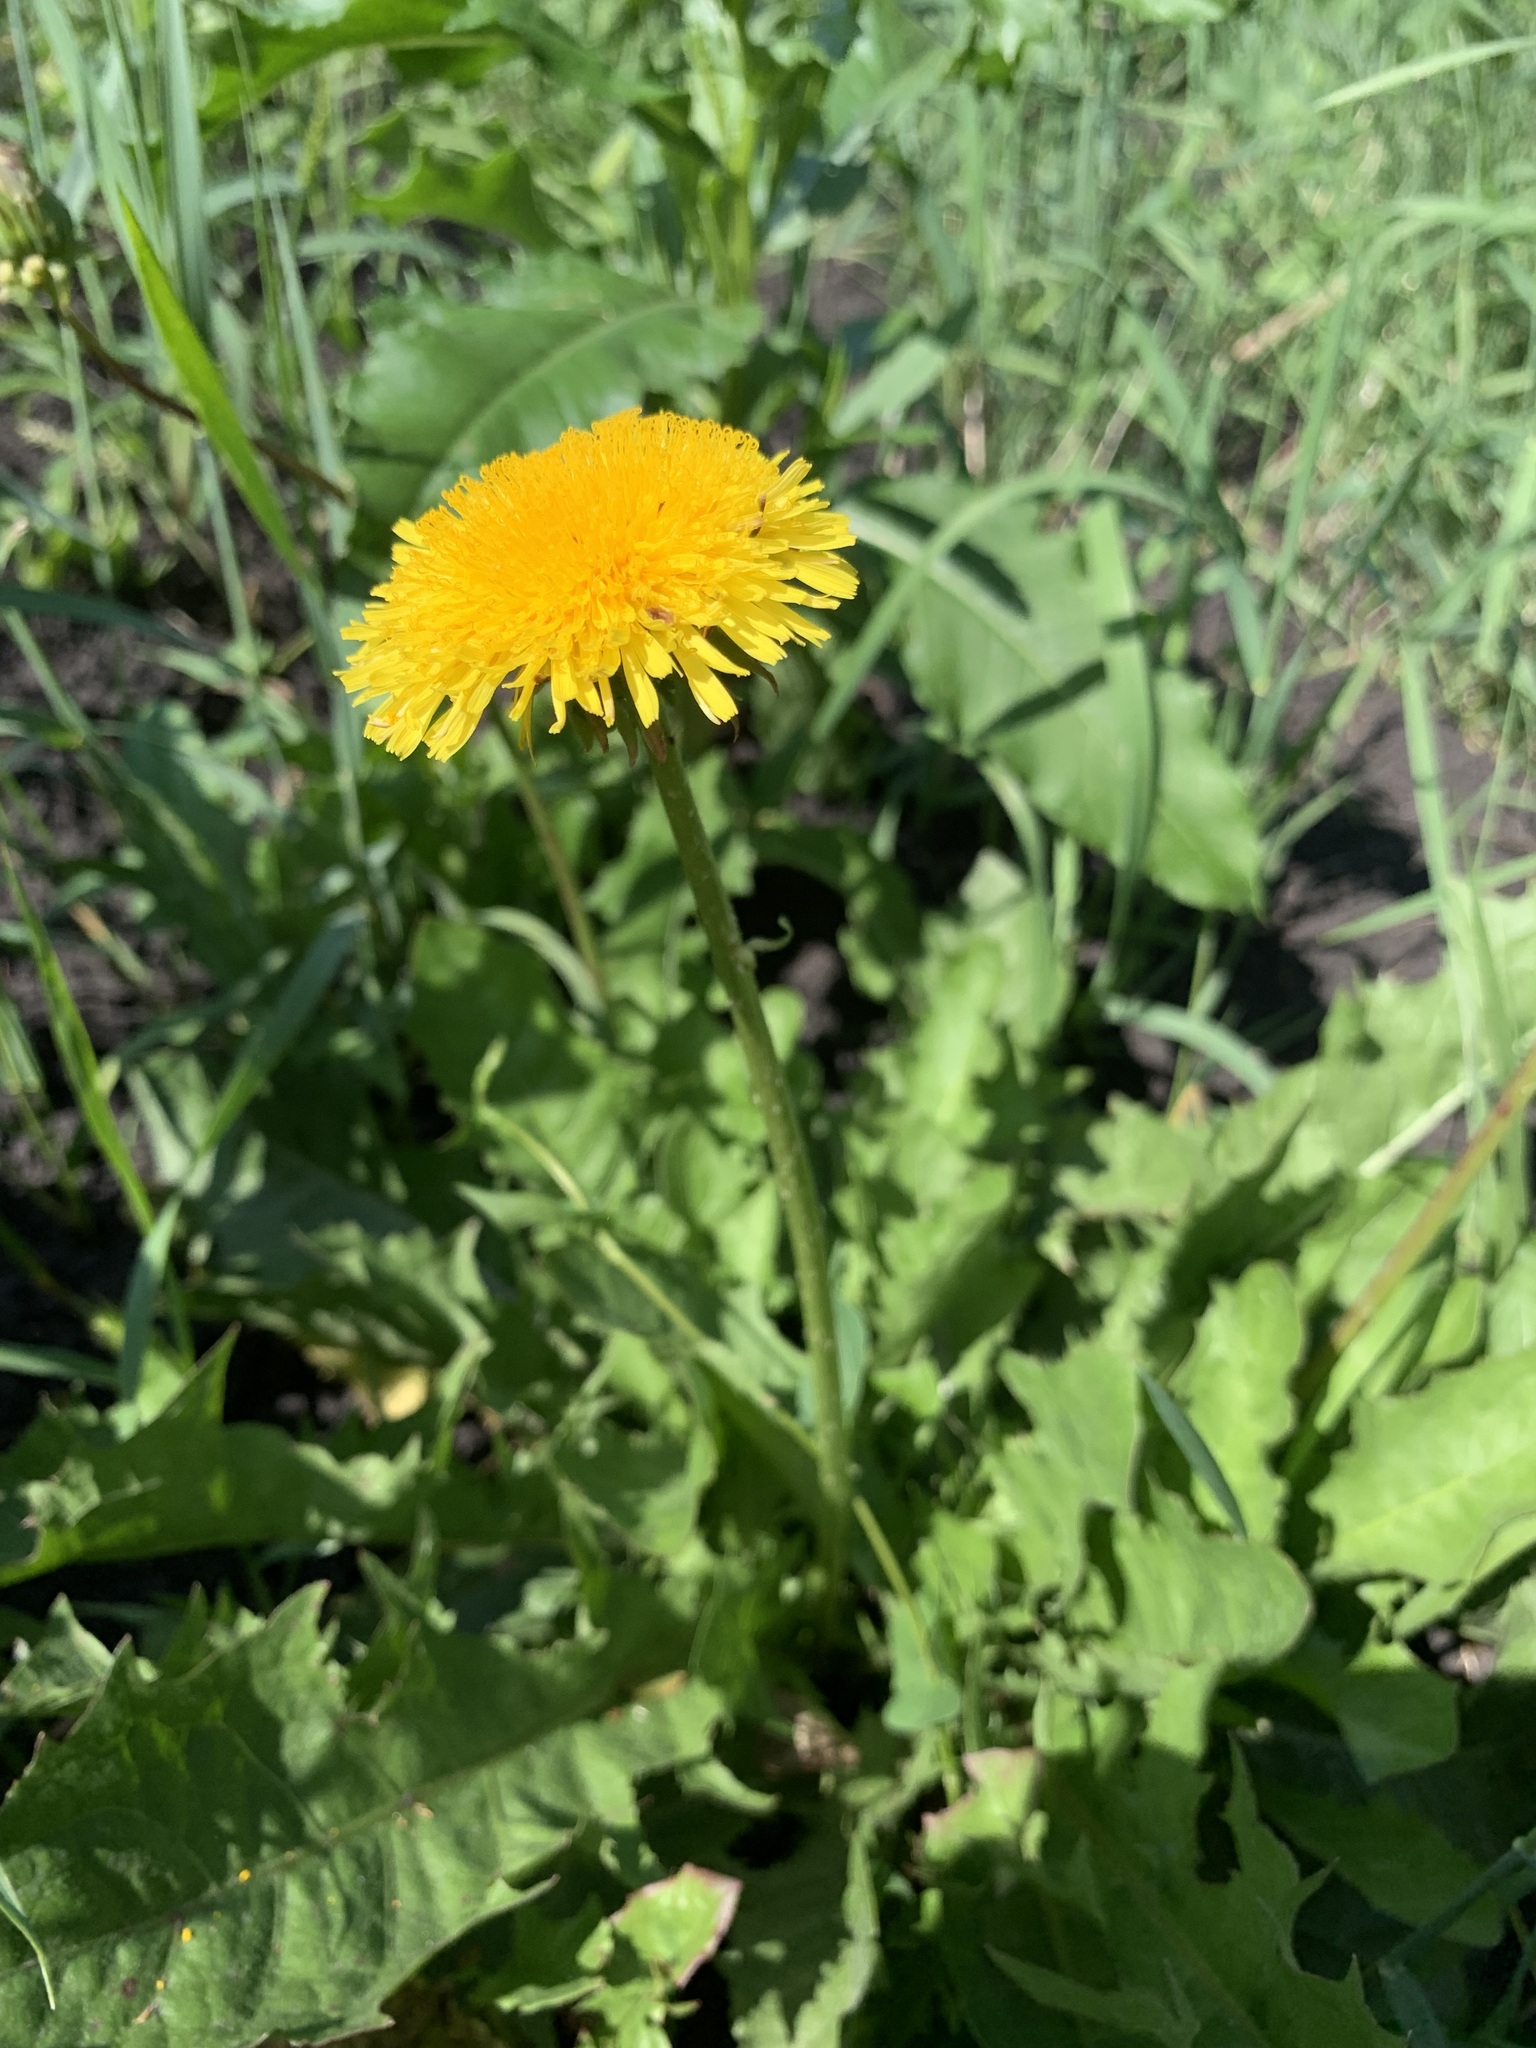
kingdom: Plantae
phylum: Tracheophyta
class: Magnoliopsida
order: Asterales
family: Asteraceae
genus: Taraxacum
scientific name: Taraxacum officinale
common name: Common dandelion
